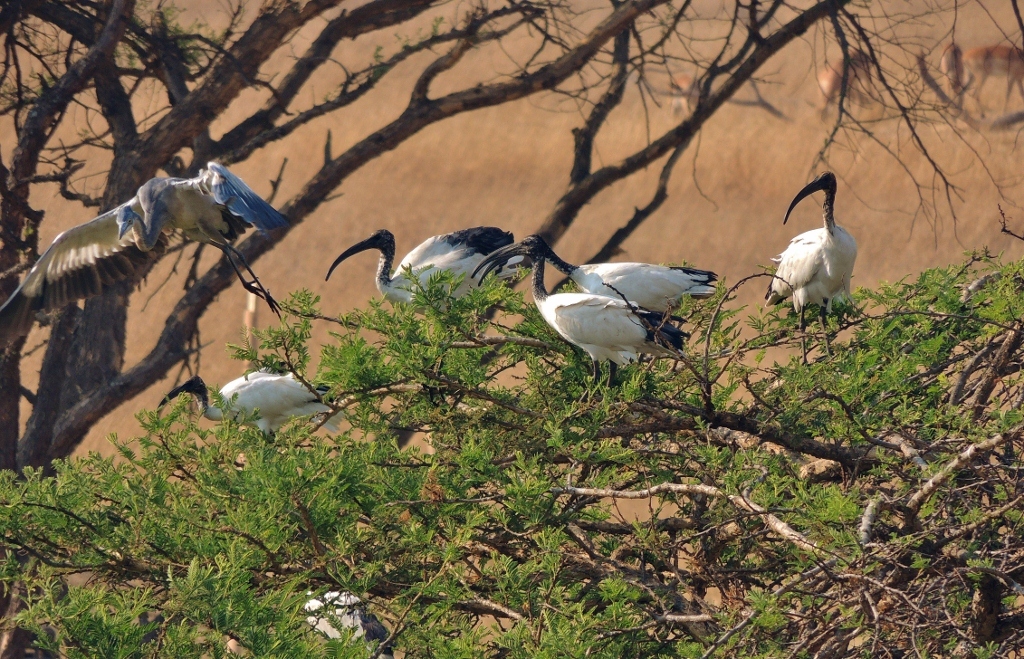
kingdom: Animalia
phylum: Chordata
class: Aves
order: Pelecaniformes
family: Ardeidae
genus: Ardea
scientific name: Ardea melanocephala
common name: Black-headed heron
